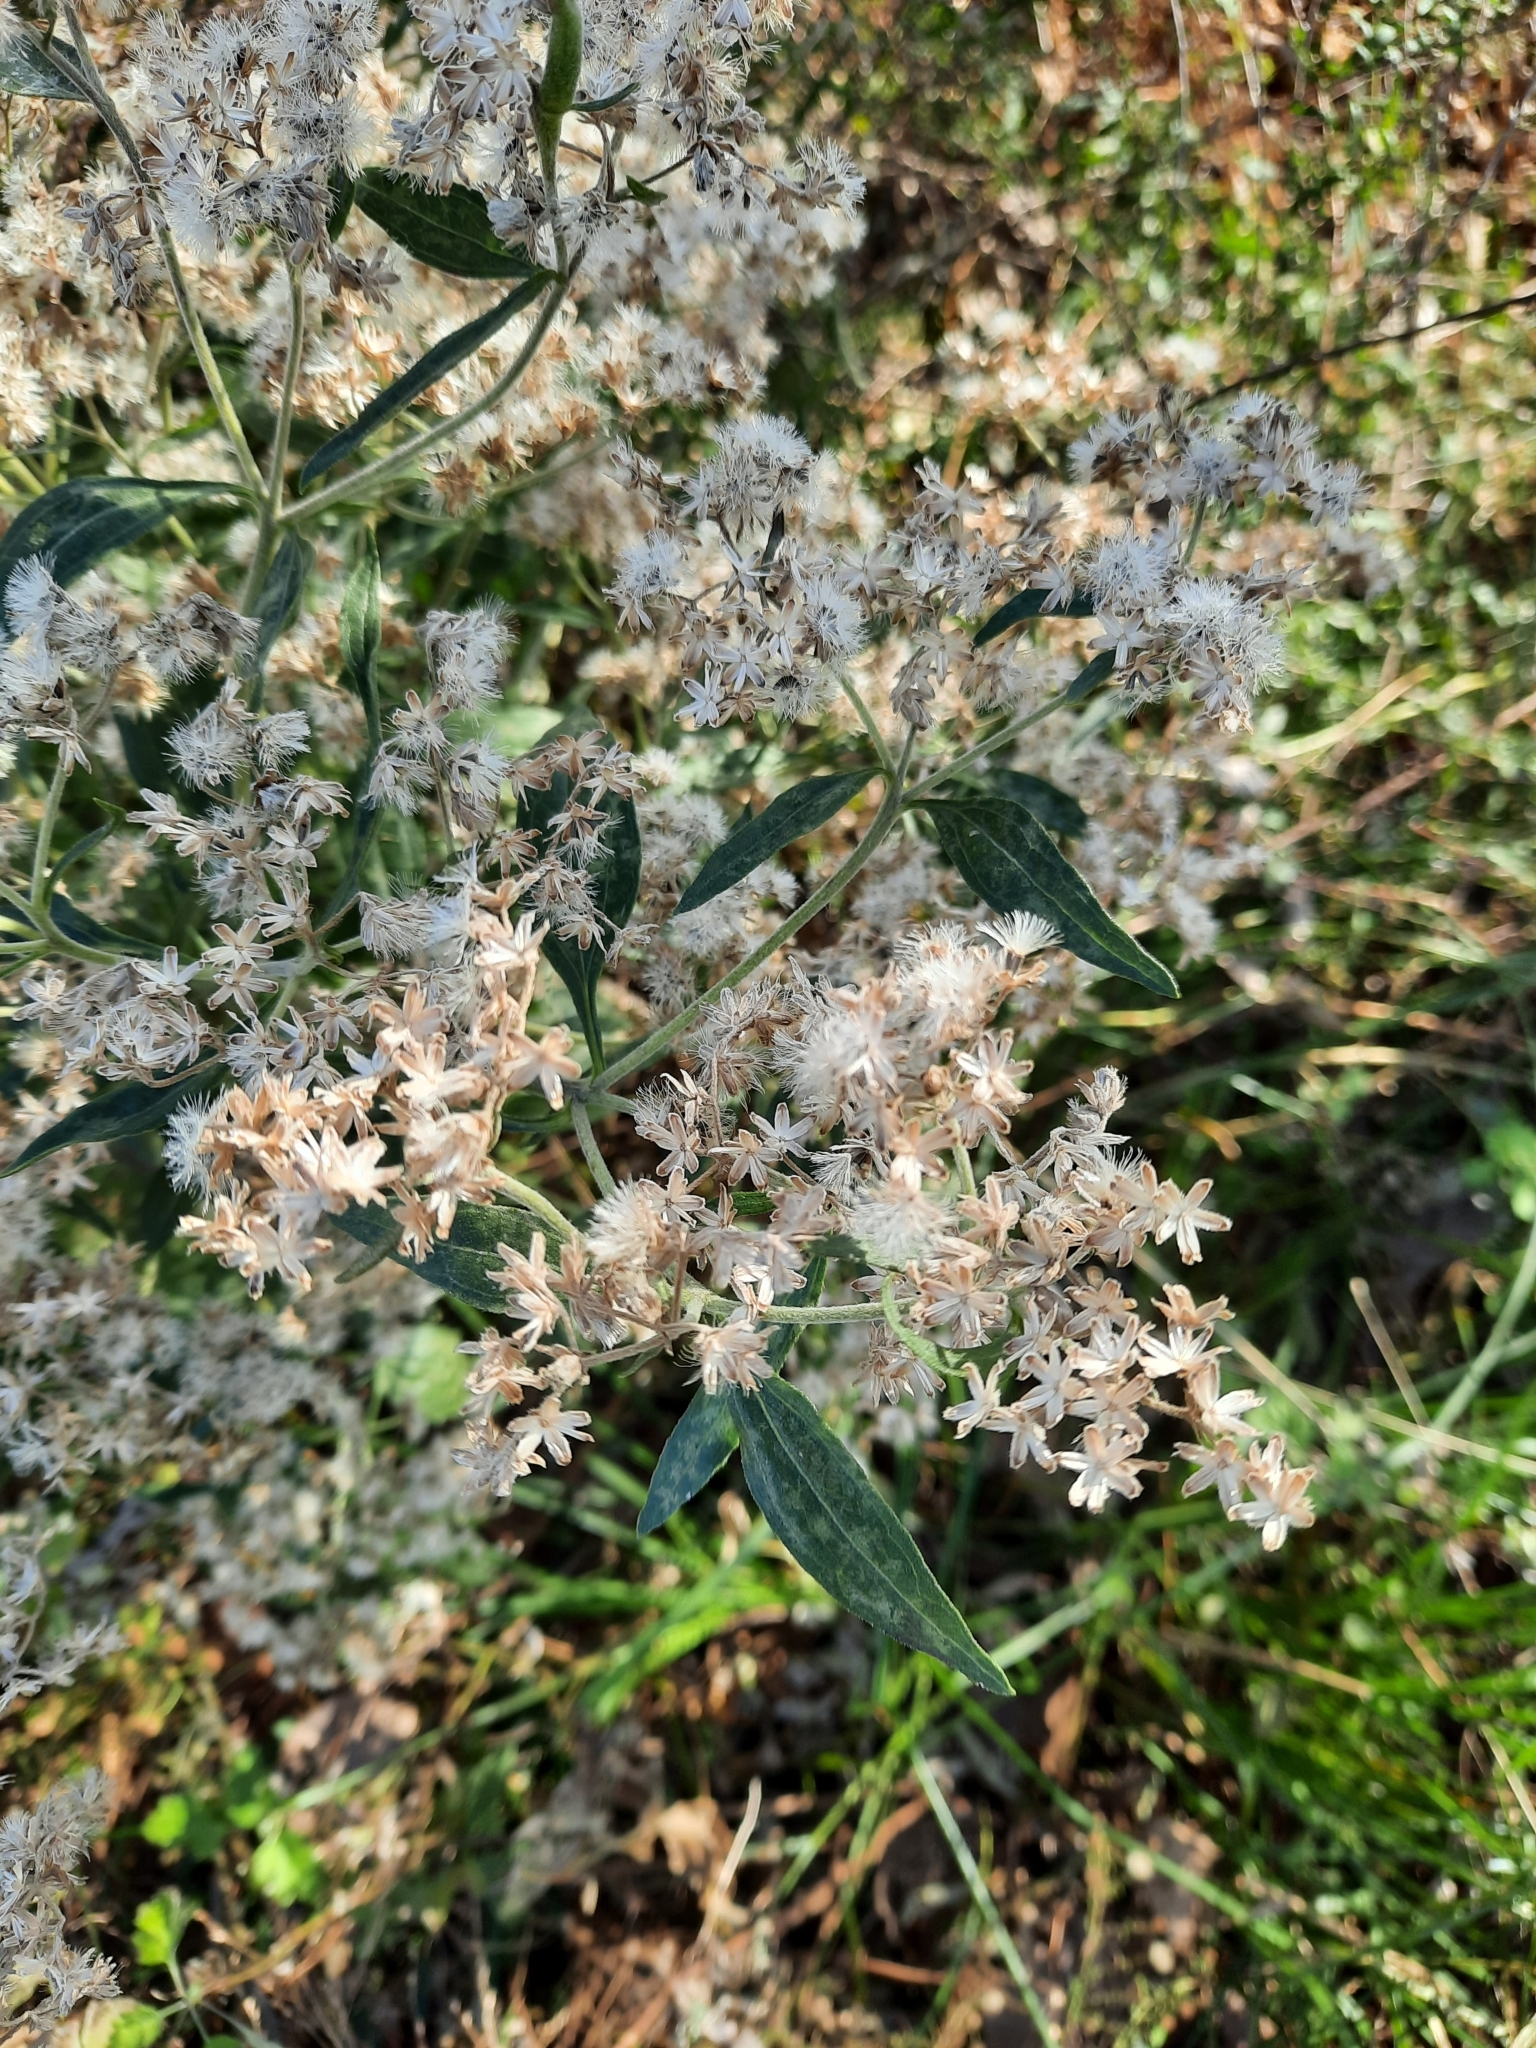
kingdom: Plantae
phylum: Tracheophyta
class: Magnoliopsida
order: Asterales
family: Asteraceae
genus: Eupatorium
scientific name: Eupatorium serotinum
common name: Late boneset
